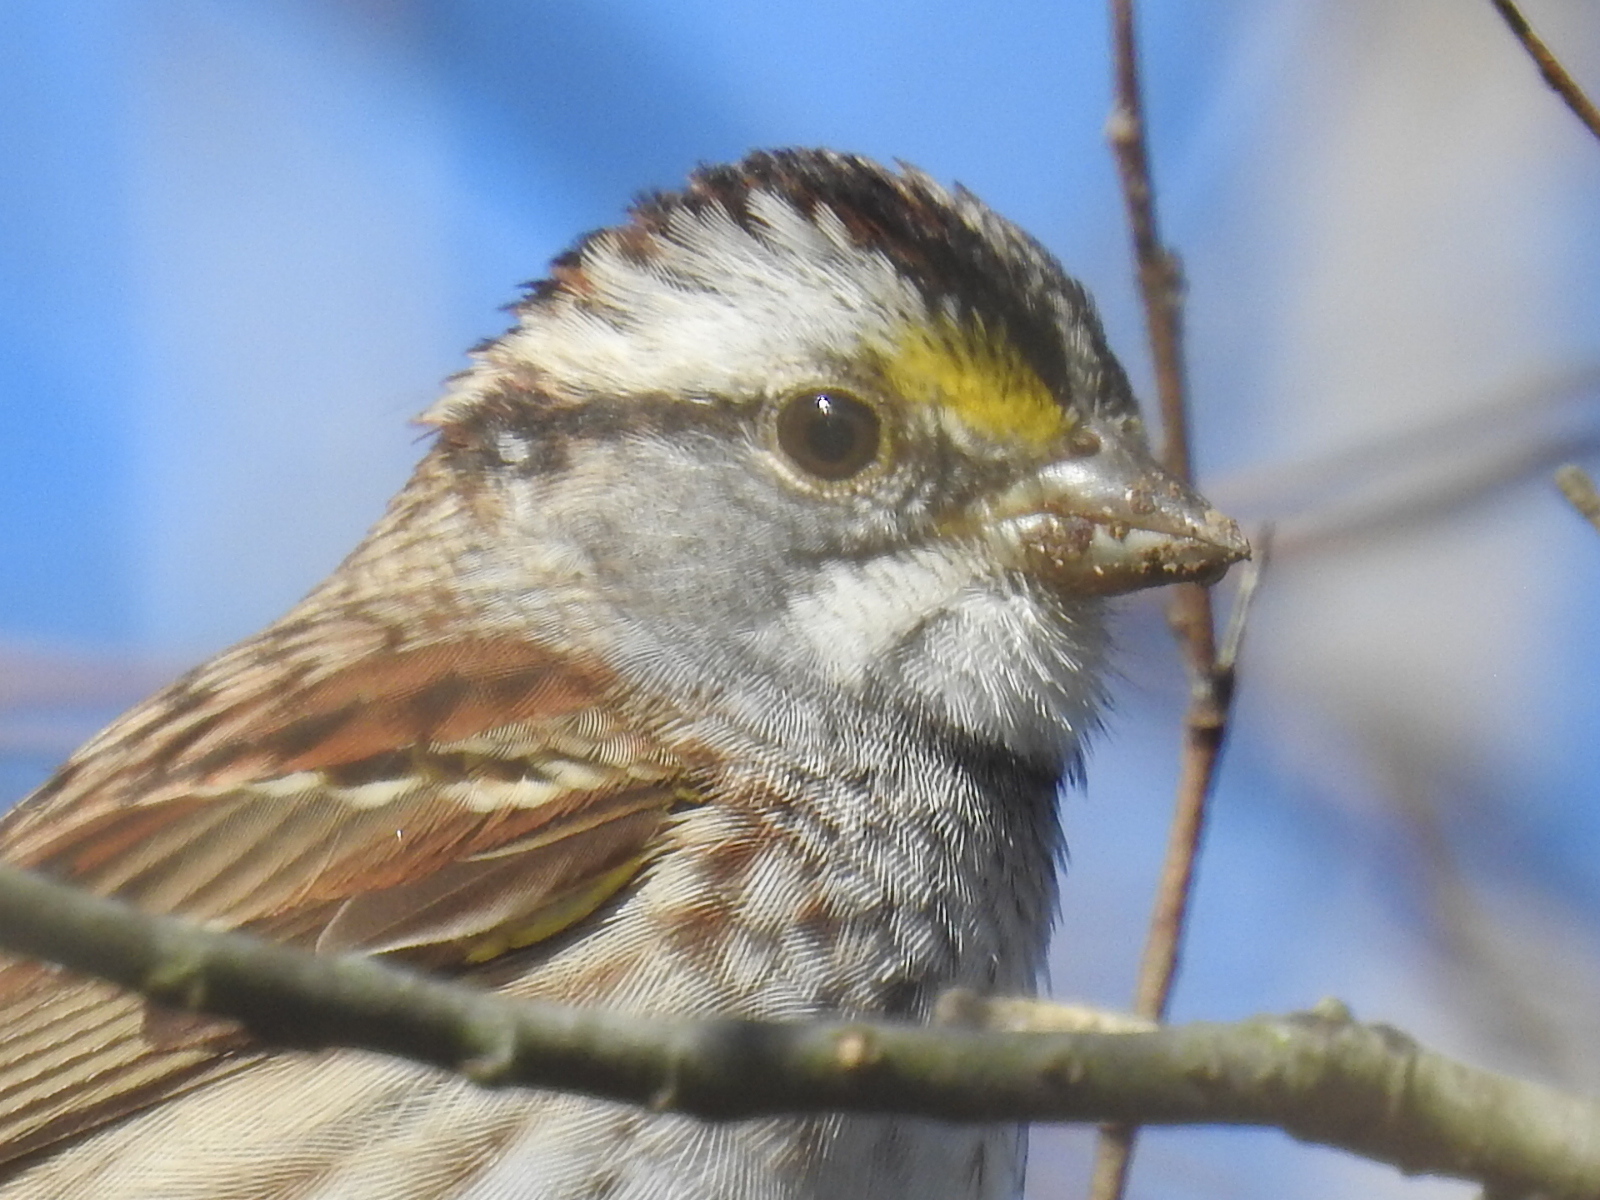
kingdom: Animalia
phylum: Chordata
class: Aves
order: Passeriformes
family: Passerellidae
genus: Zonotrichia
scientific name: Zonotrichia albicollis
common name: White-throated sparrow
